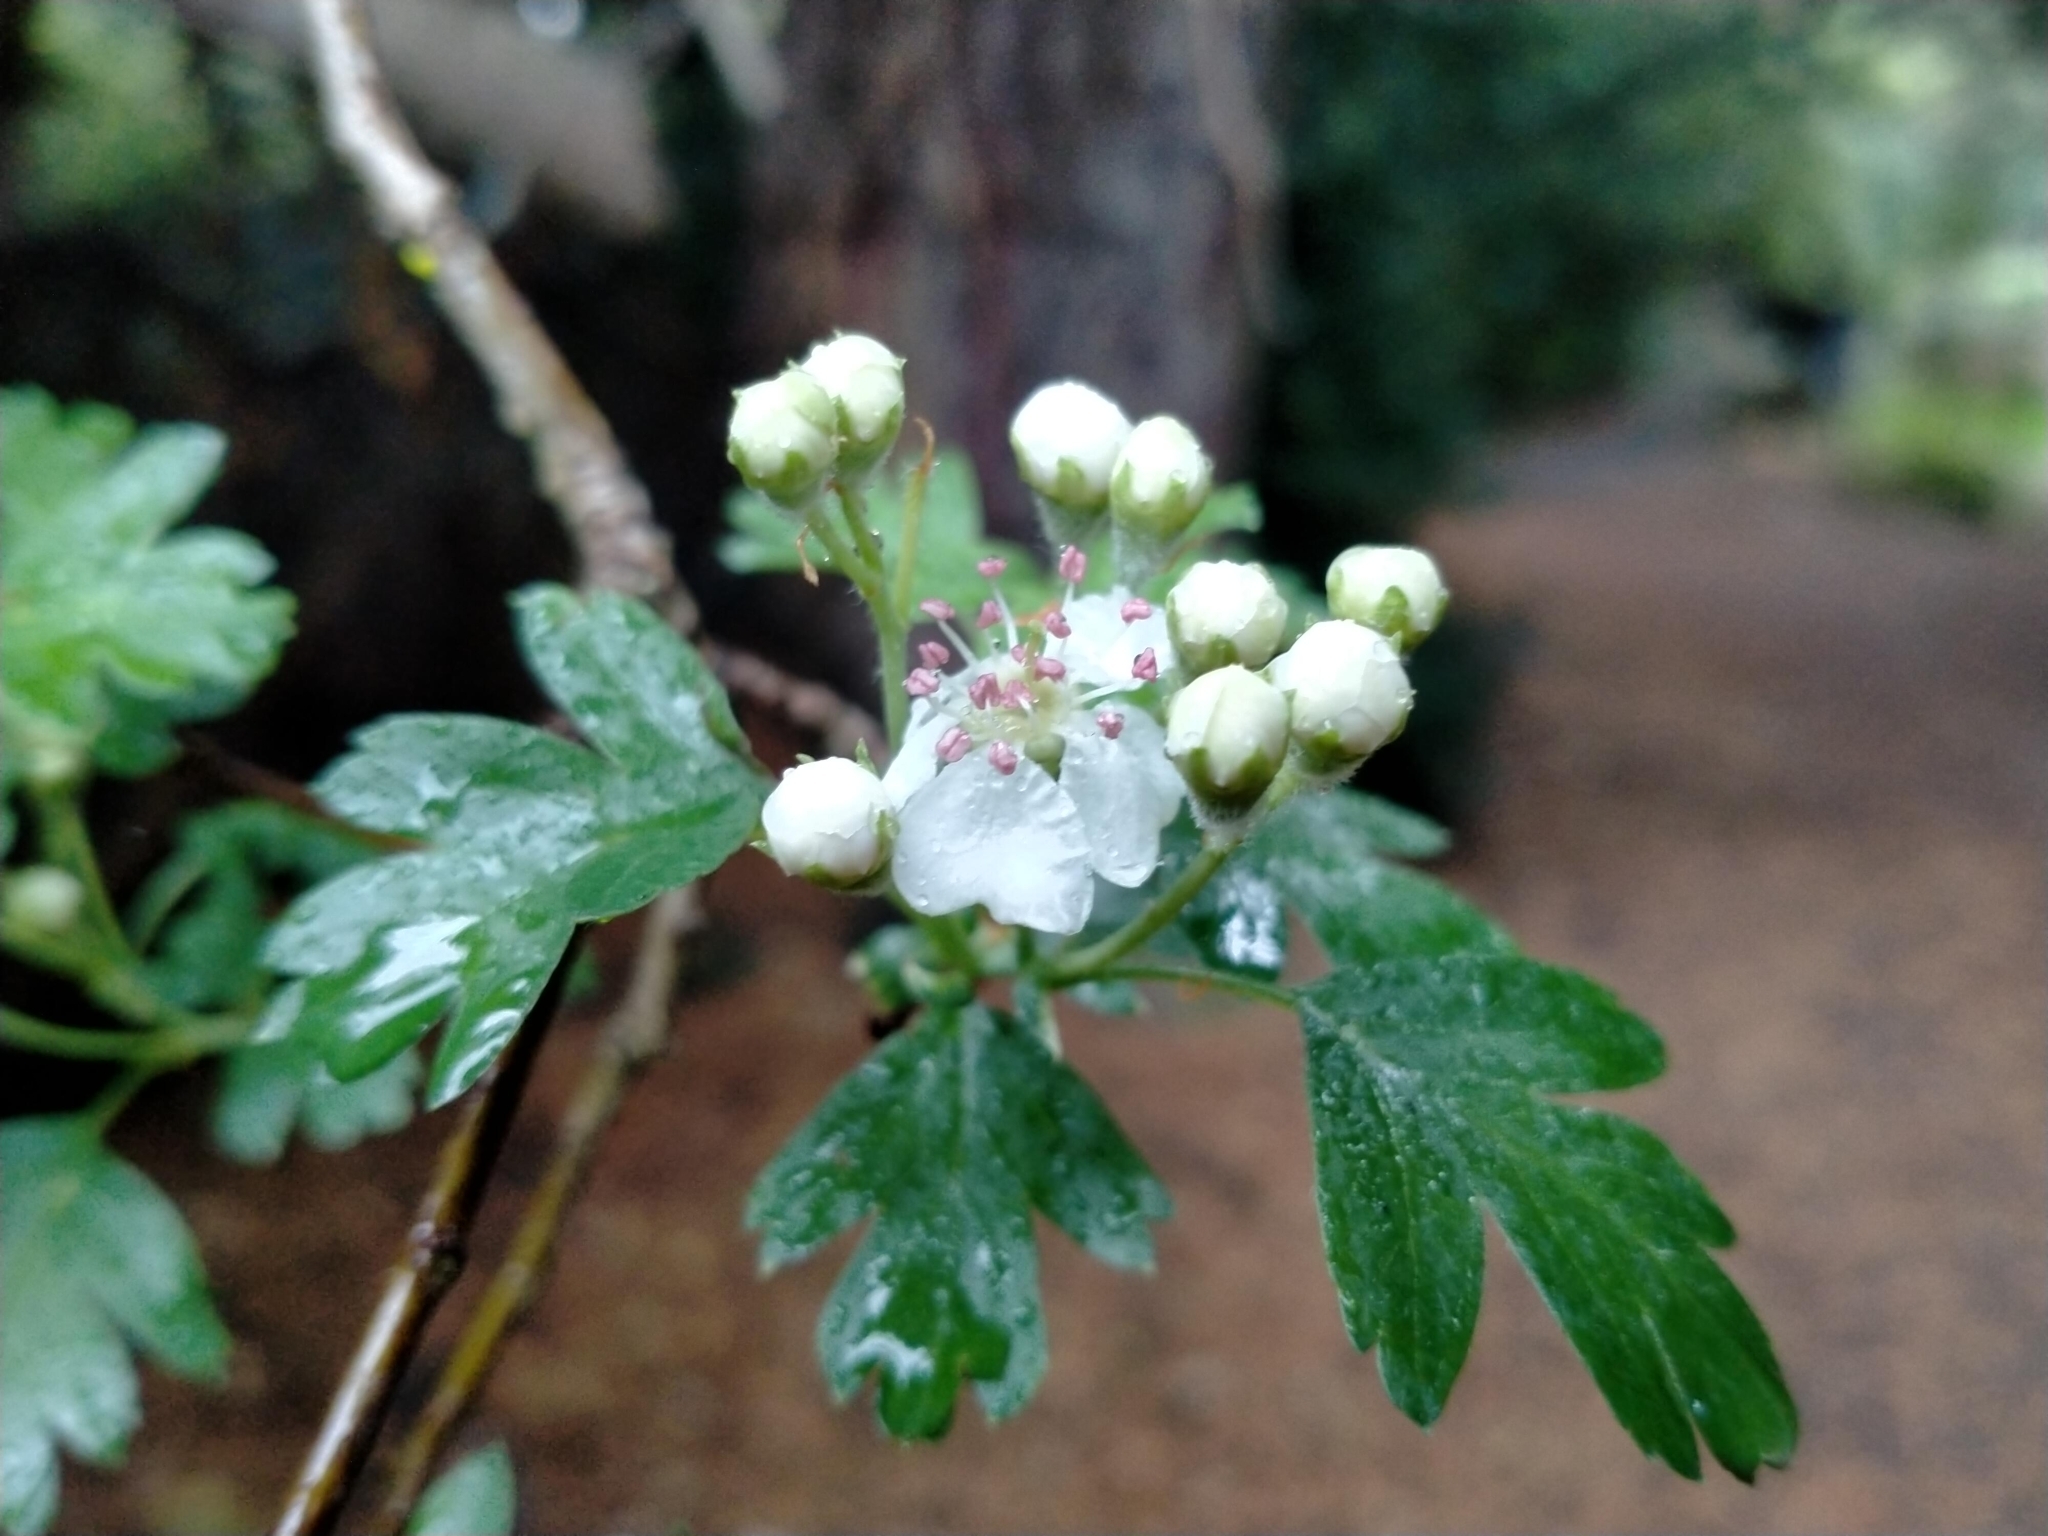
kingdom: Plantae
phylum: Tracheophyta
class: Magnoliopsida
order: Rosales
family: Rosaceae
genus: Crataegus
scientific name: Crataegus monogyna
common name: Hawthorn
